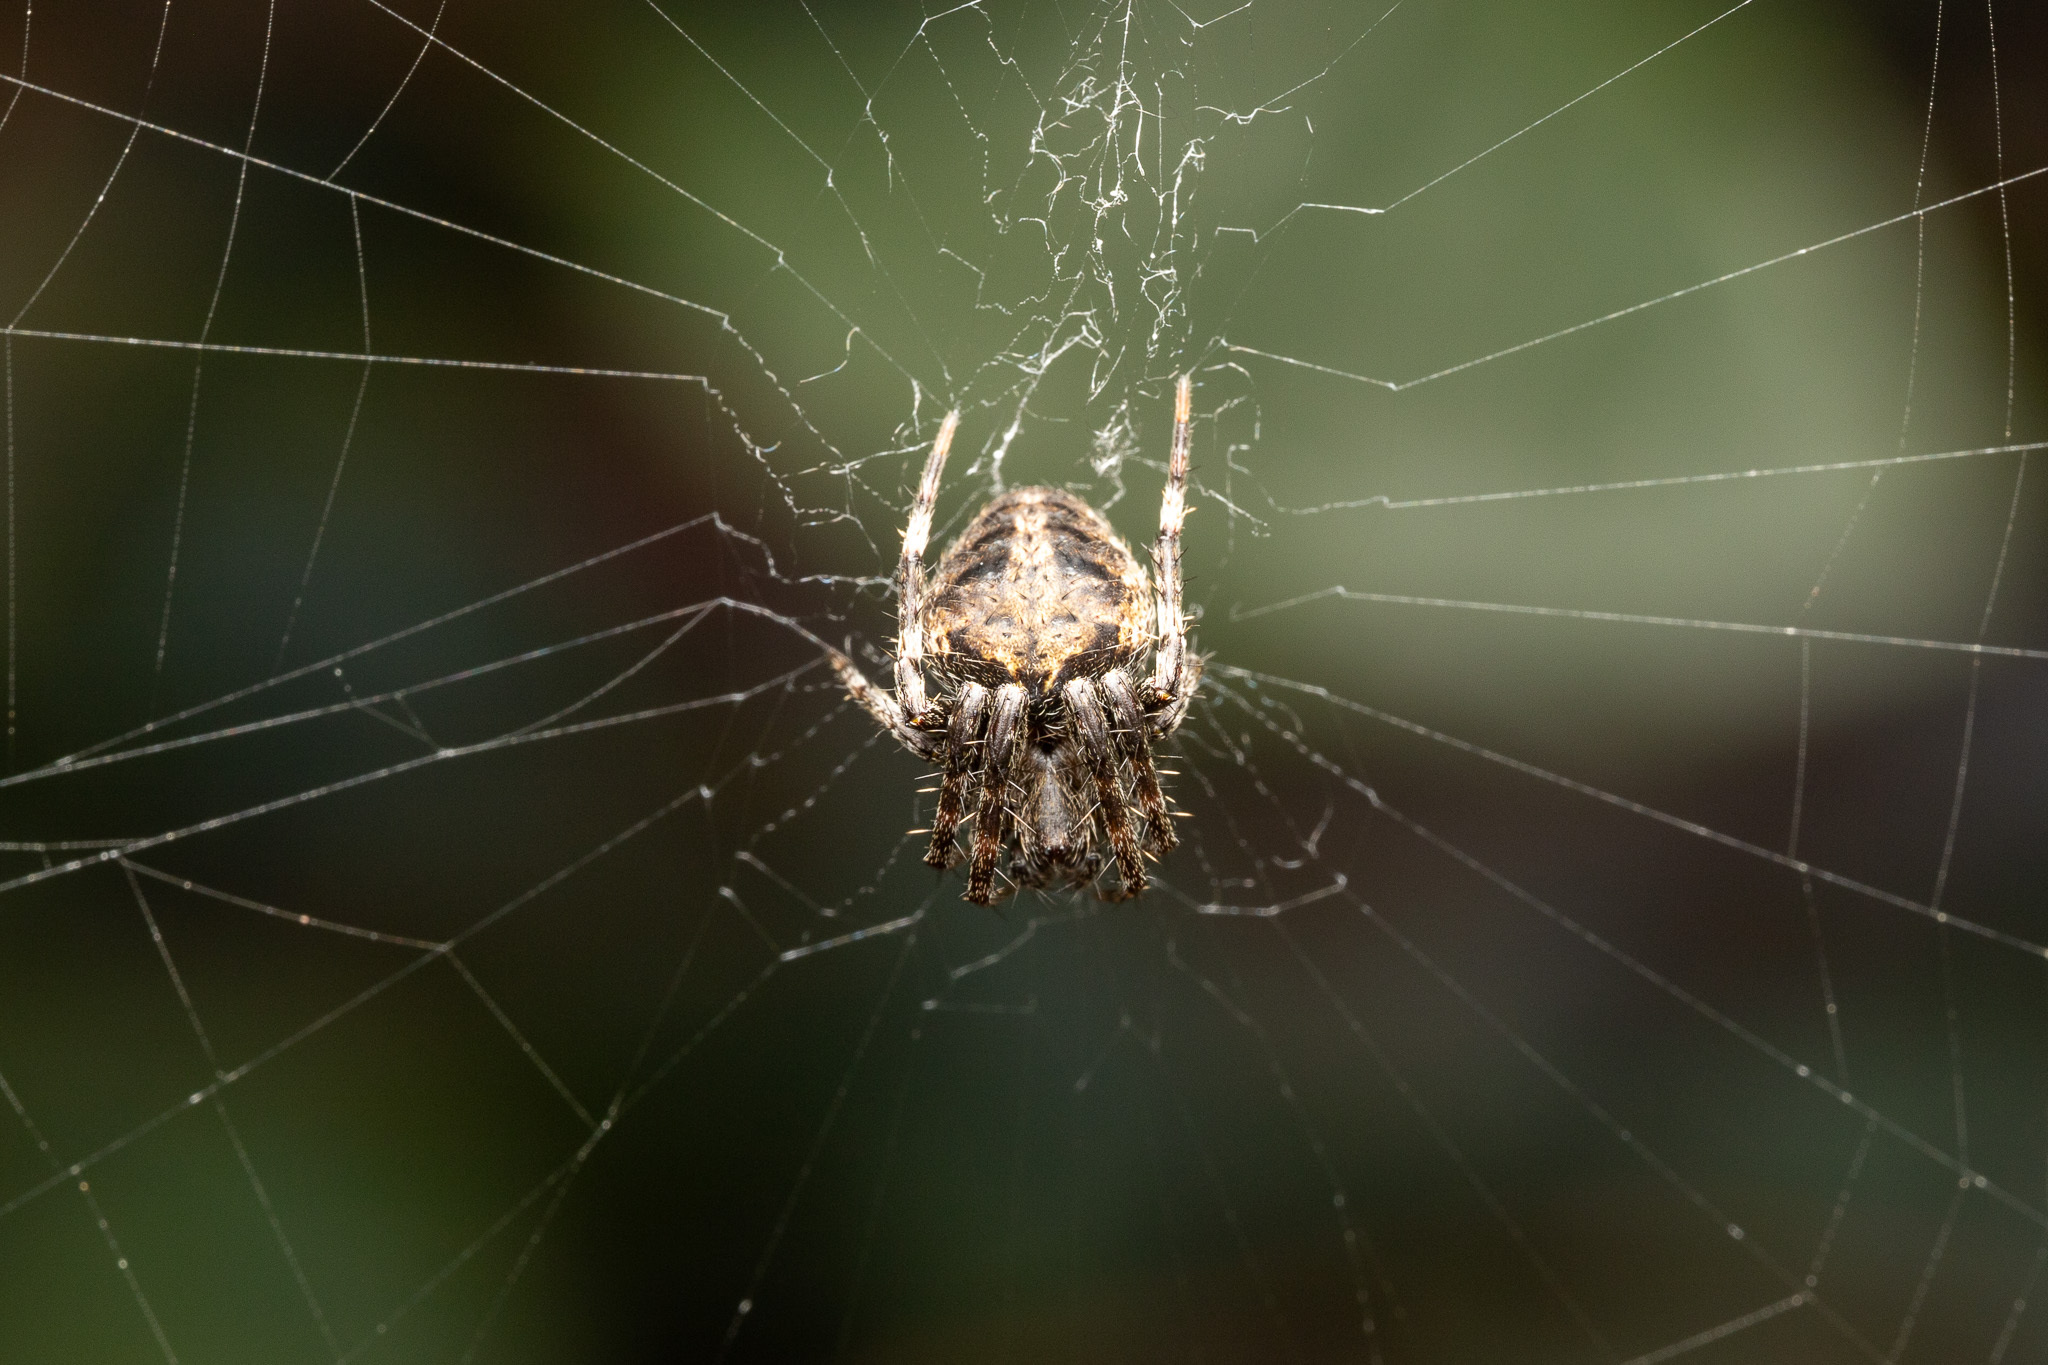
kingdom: Animalia
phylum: Arthropoda
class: Arachnida
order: Araneae
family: Araneidae
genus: Neoscona
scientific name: Neoscona crucifera
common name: Spotted orbweaver
